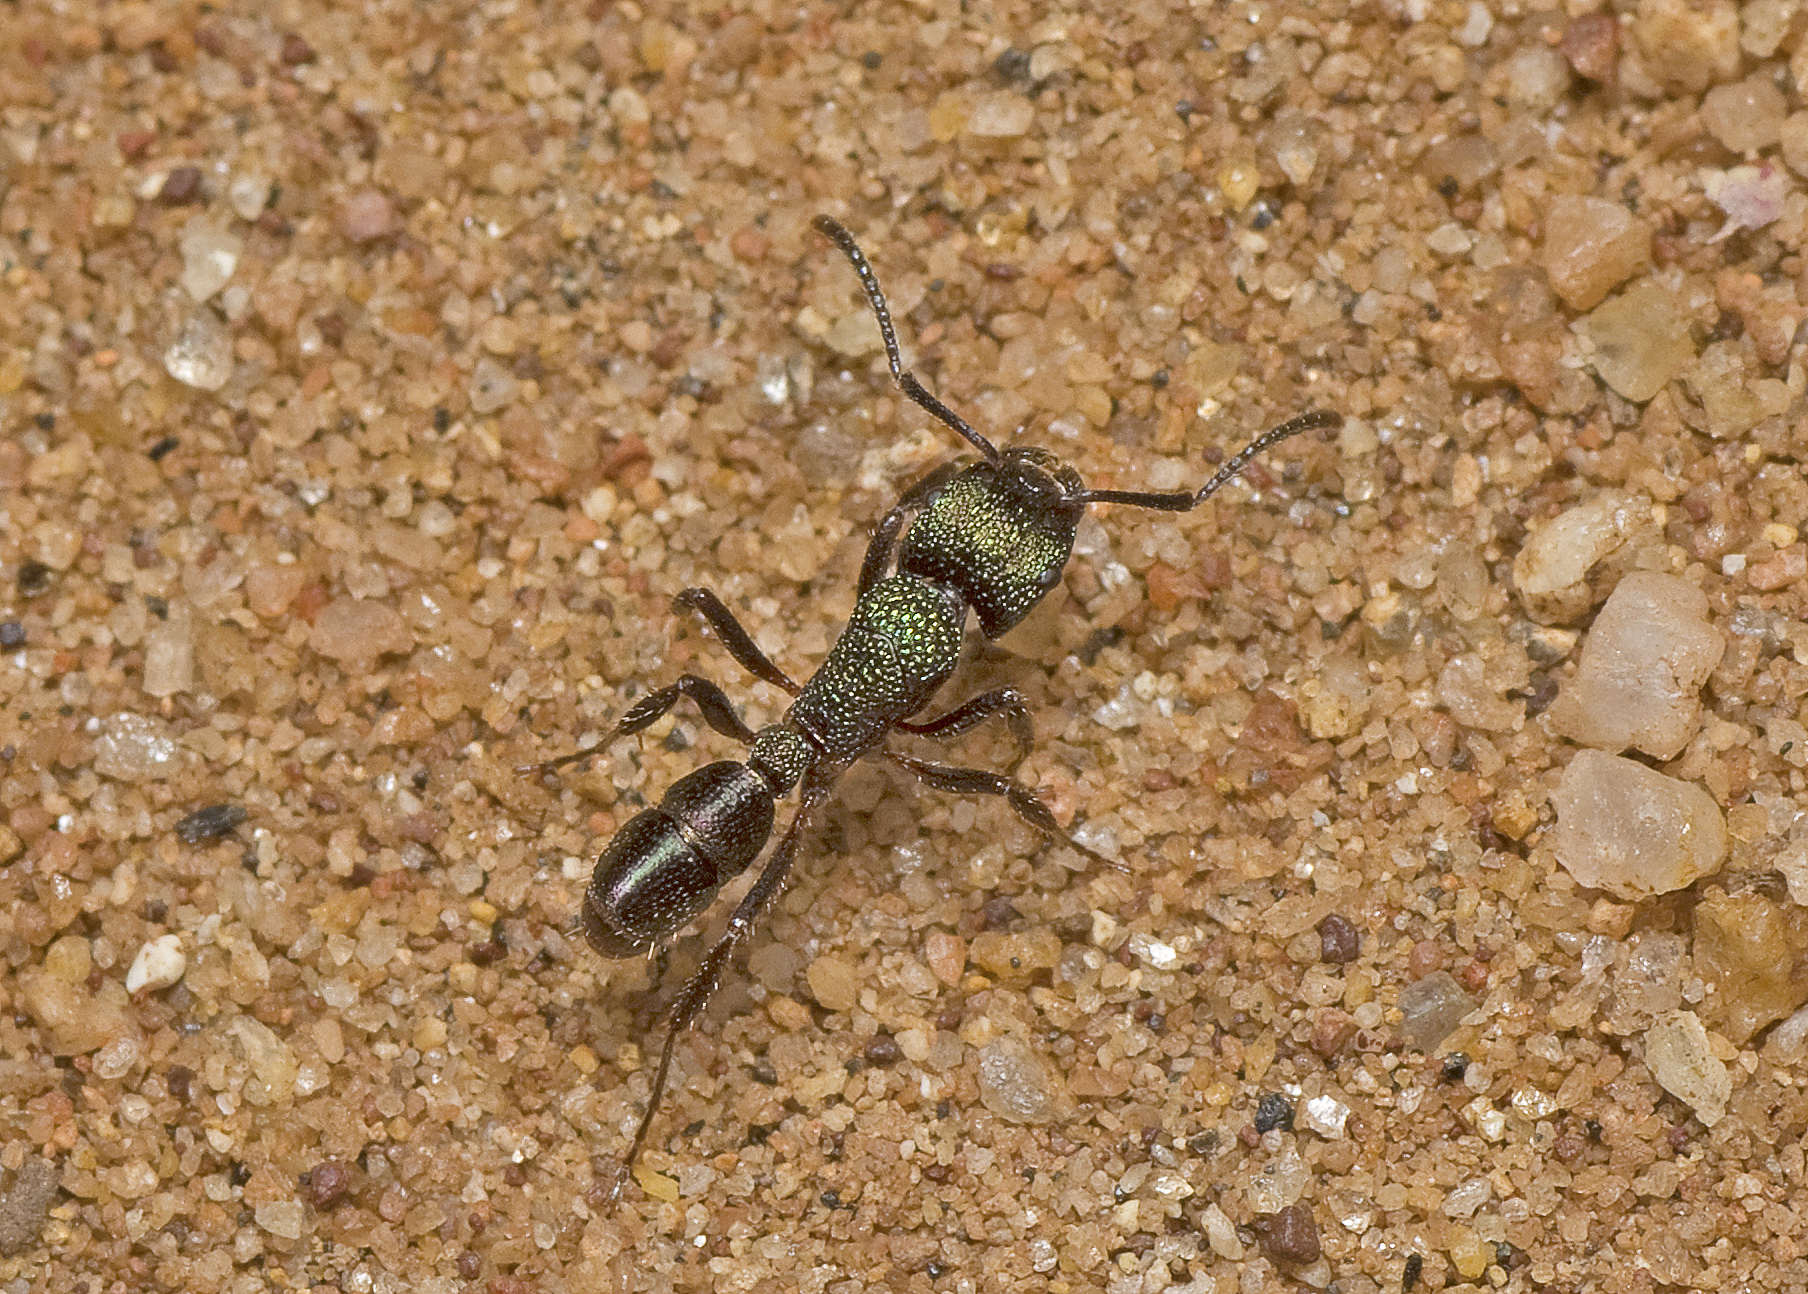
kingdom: Animalia
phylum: Arthropoda
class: Insecta
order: Hymenoptera
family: Formicidae
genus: Rhytidoponera
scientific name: Rhytidoponera metallica
